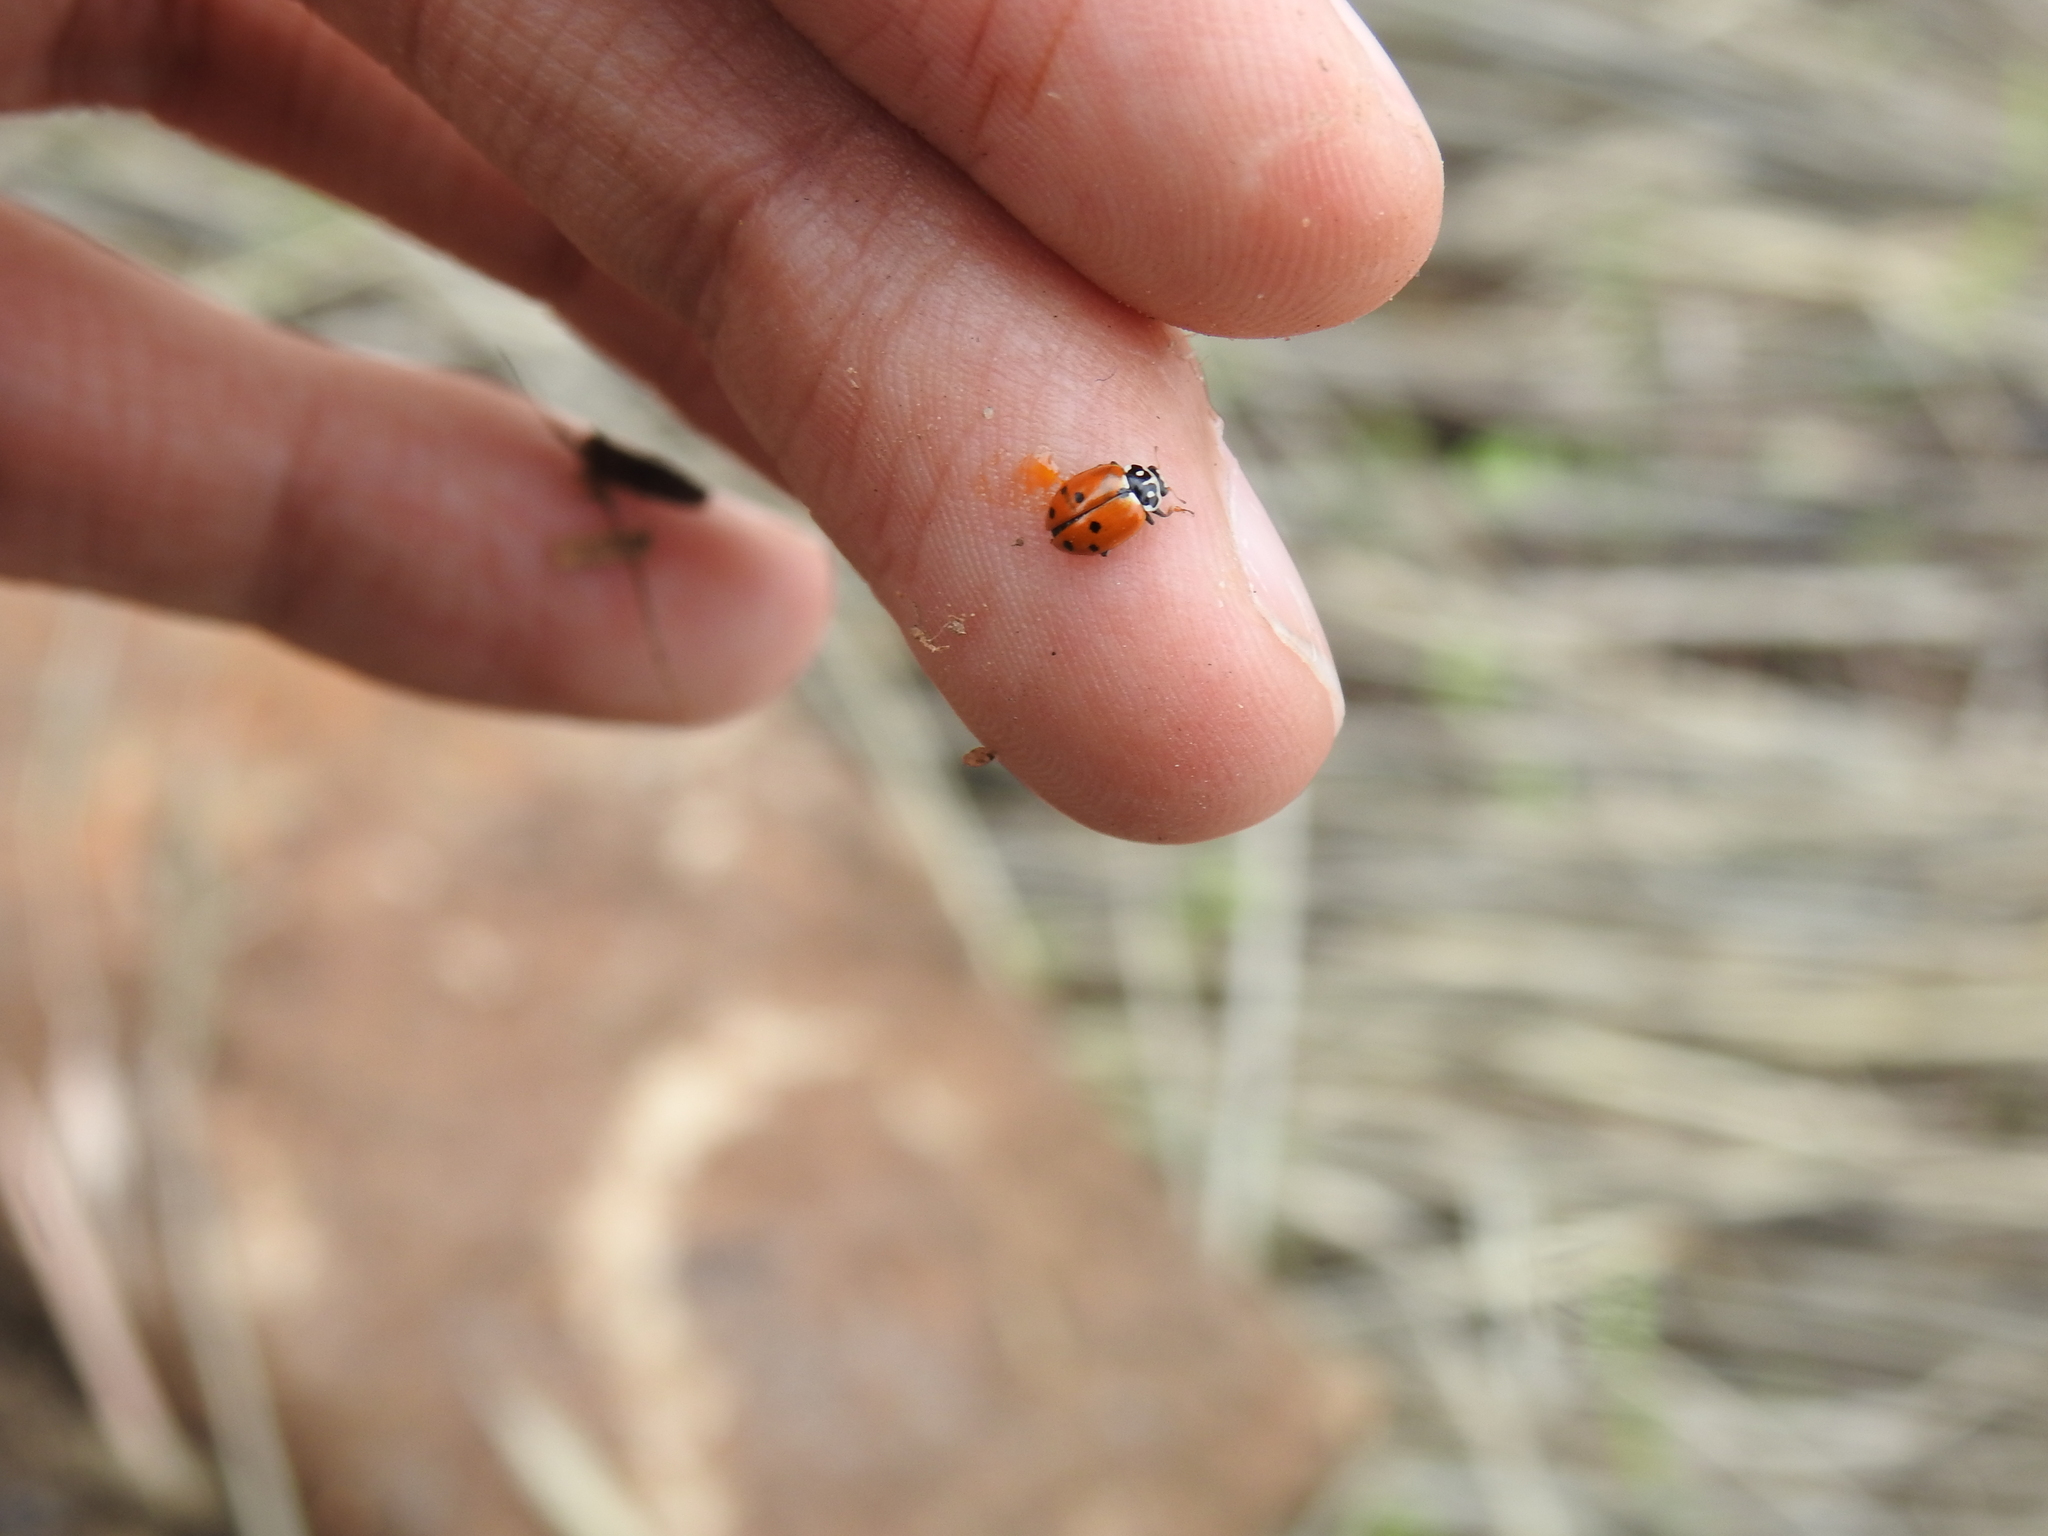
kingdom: Animalia
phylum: Arthropoda
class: Insecta
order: Coleoptera
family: Coccinellidae
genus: Hippodamia
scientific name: Hippodamia variegata
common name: Ladybird beetle
